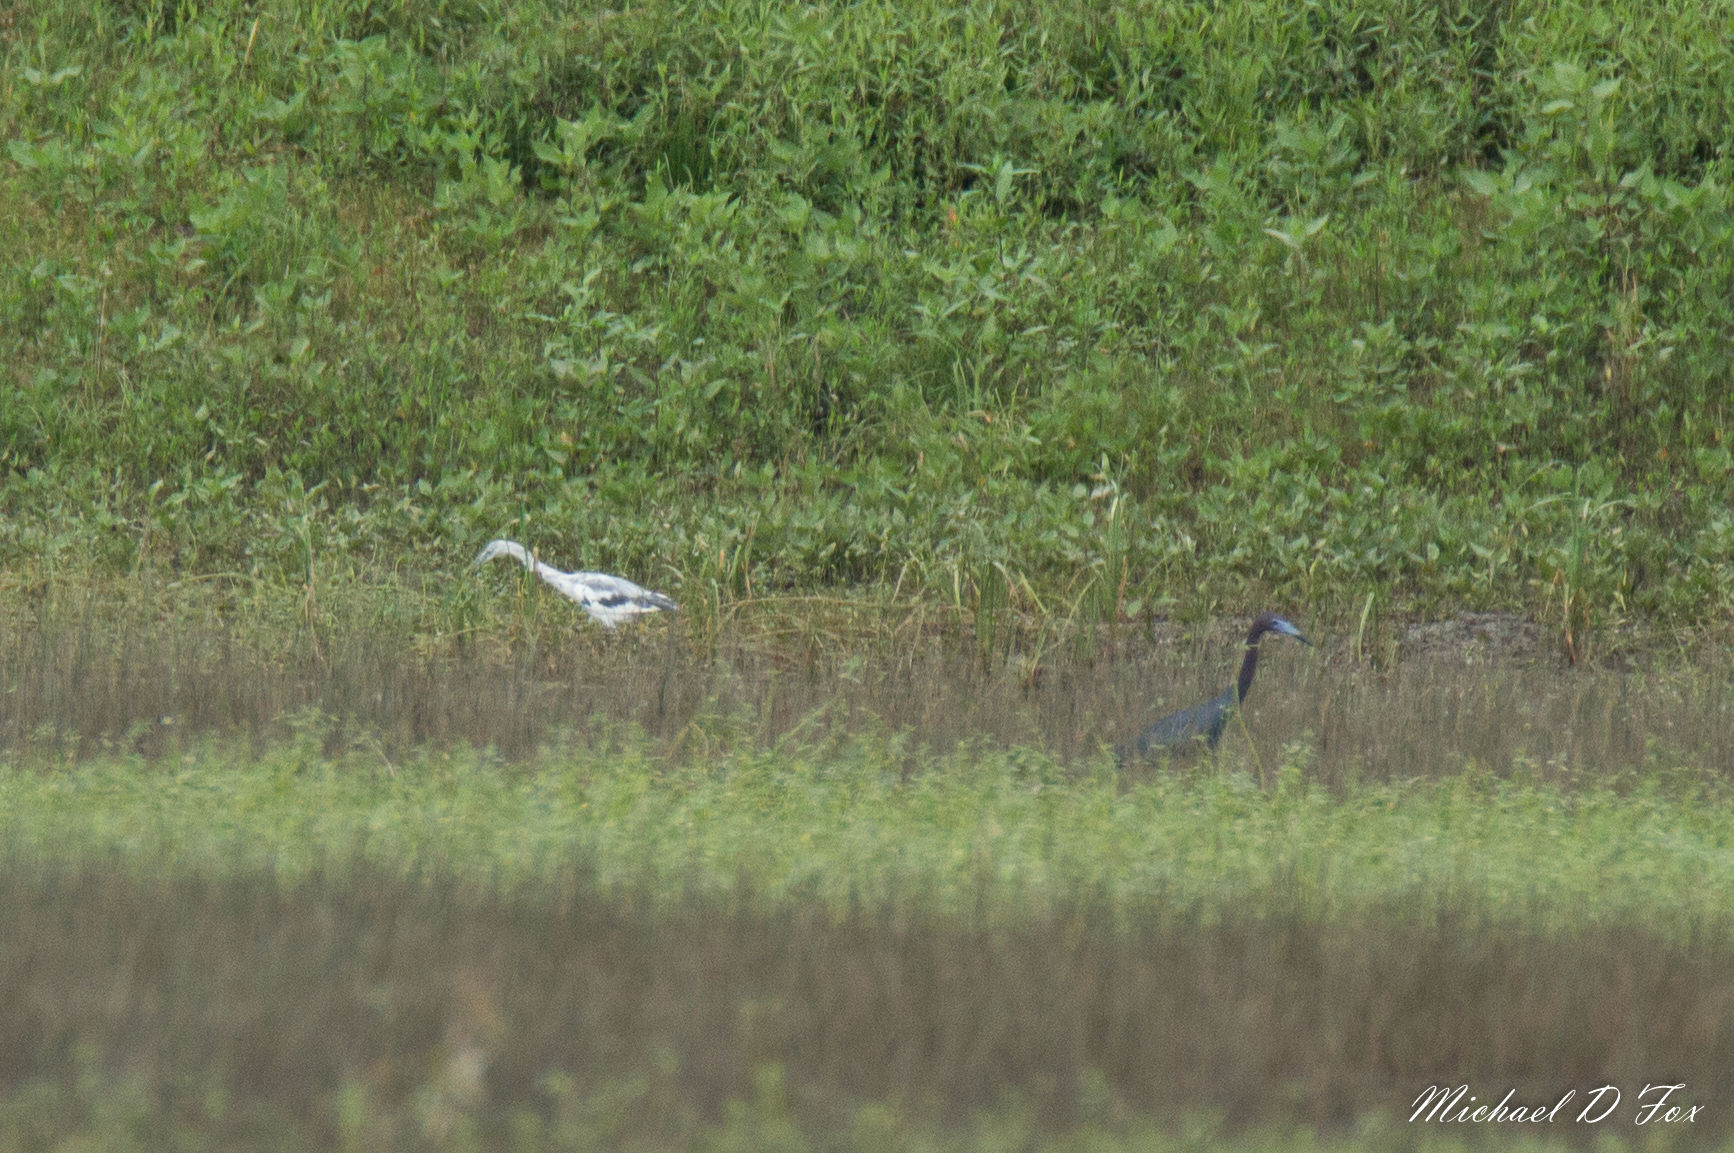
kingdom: Animalia
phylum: Chordata
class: Aves
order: Pelecaniformes
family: Ardeidae
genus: Egretta
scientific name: Egretta caerulea
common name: Little blue heron
